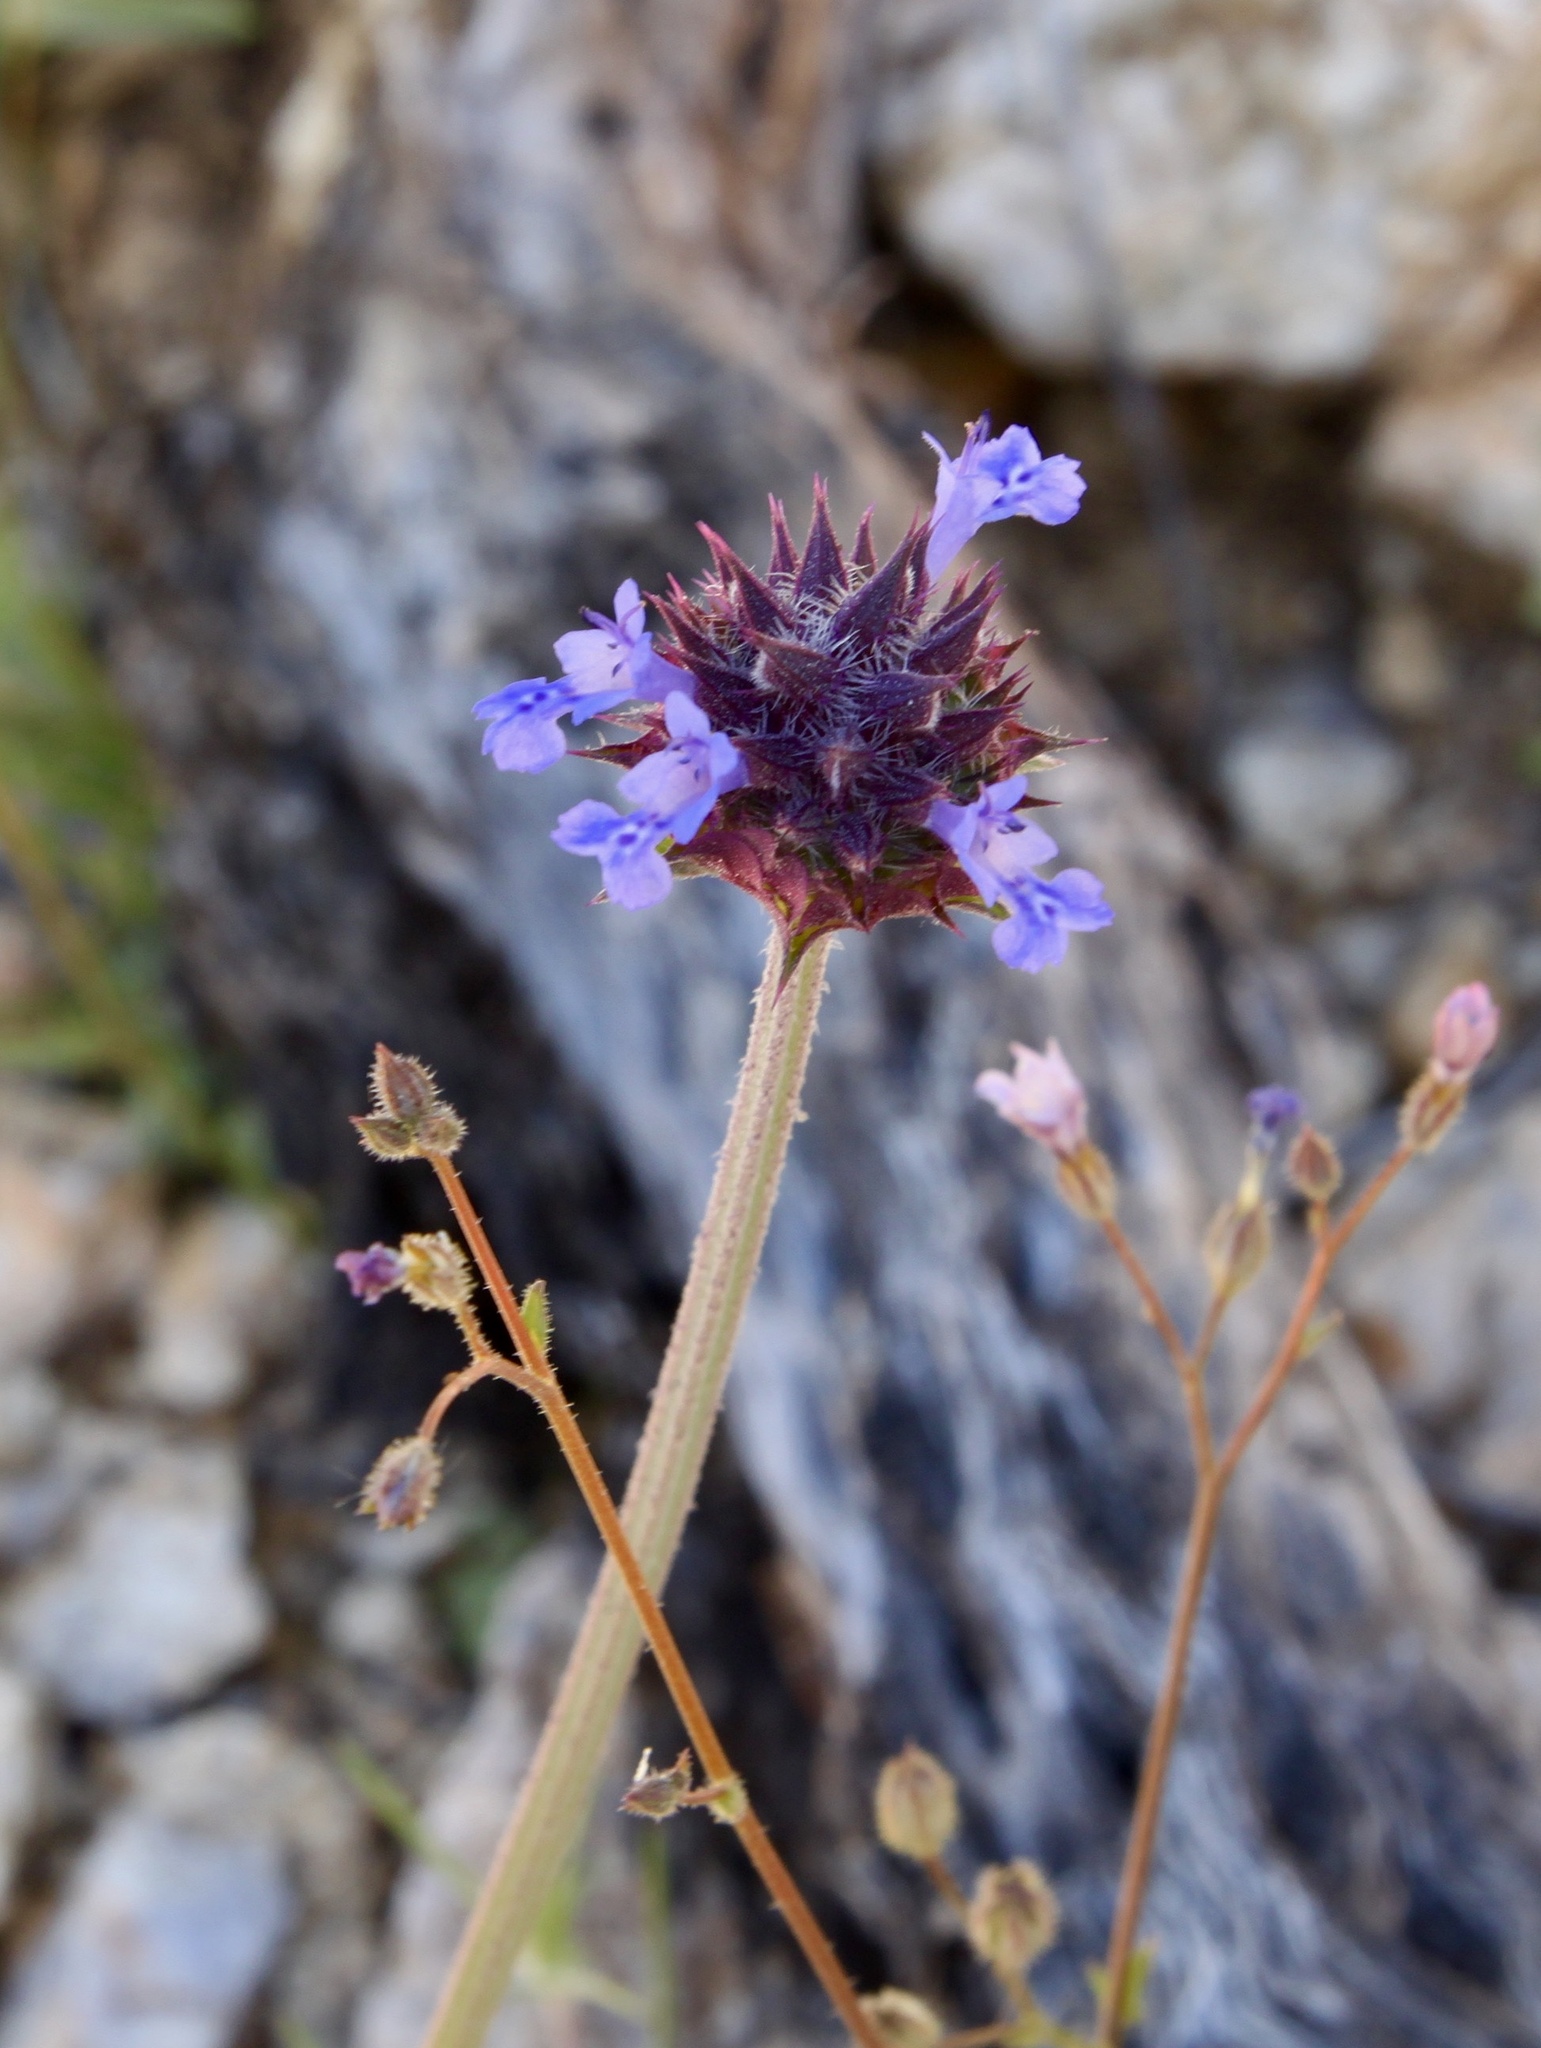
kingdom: Plantae
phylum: Tracheophyta
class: Magnoliopsida
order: Lamiales
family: Lamiaceae
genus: Salvia
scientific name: Salvia columbariae
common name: Chia
